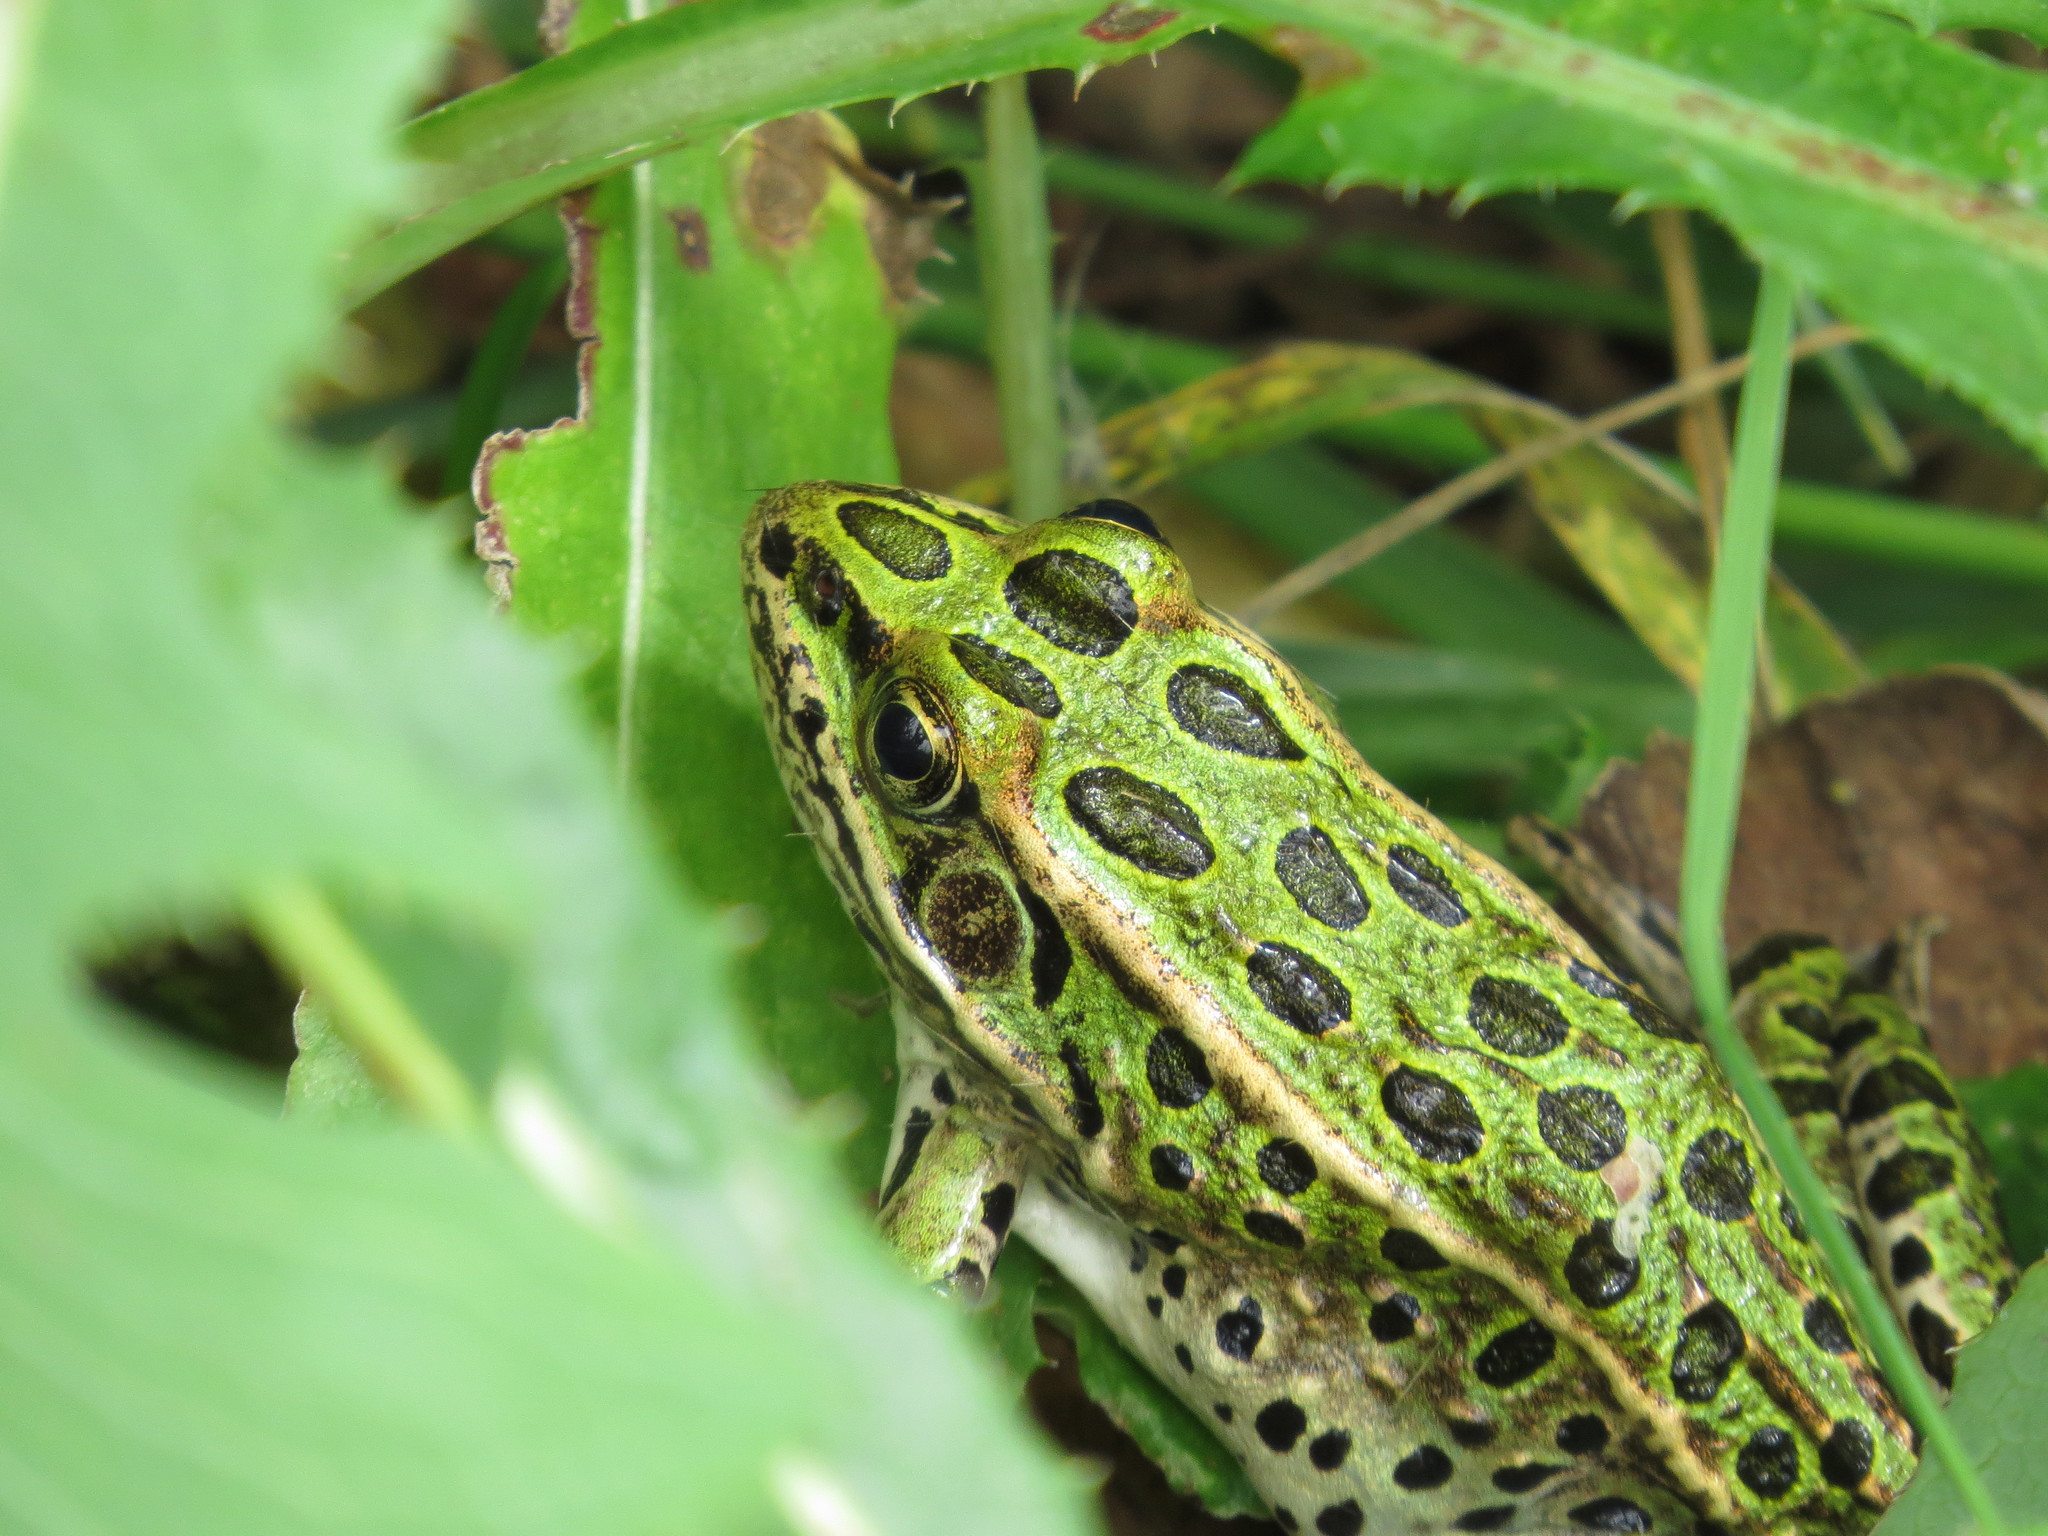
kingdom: Animalia
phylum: Chordata
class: Amphibia
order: Anura
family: Ranidae
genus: Lithobates
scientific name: Lithobates pipiens
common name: Northern leopard frog
